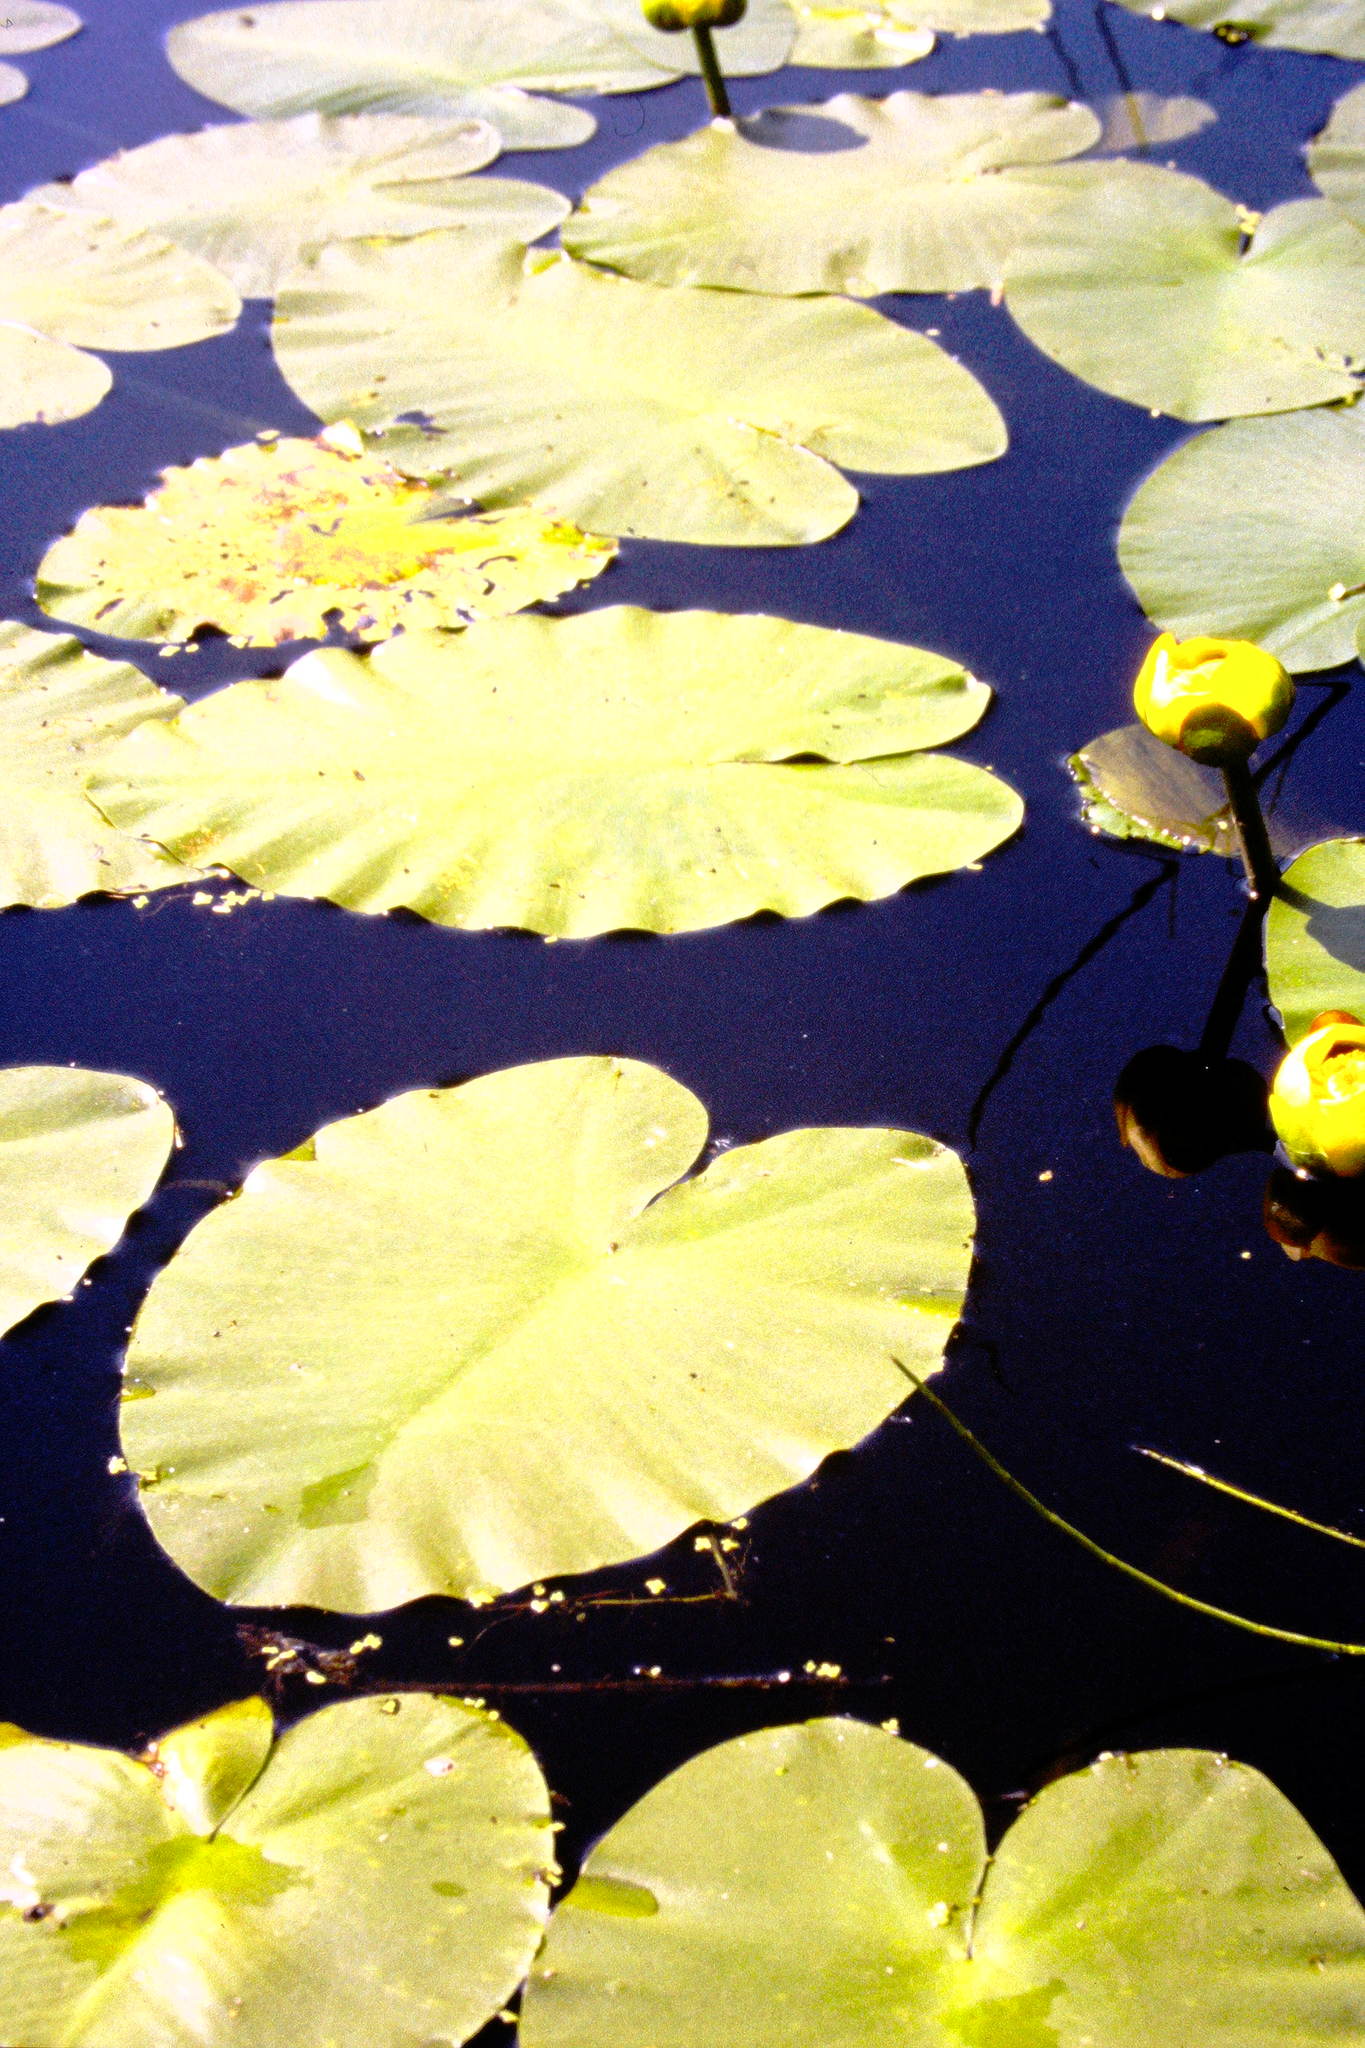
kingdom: Plantae
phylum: Tracheophyta
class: Magnoliopsida
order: Nymphaeales
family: Nymphaeaceae
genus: Nuphar
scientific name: Nuphar variegata
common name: Beaver-root
